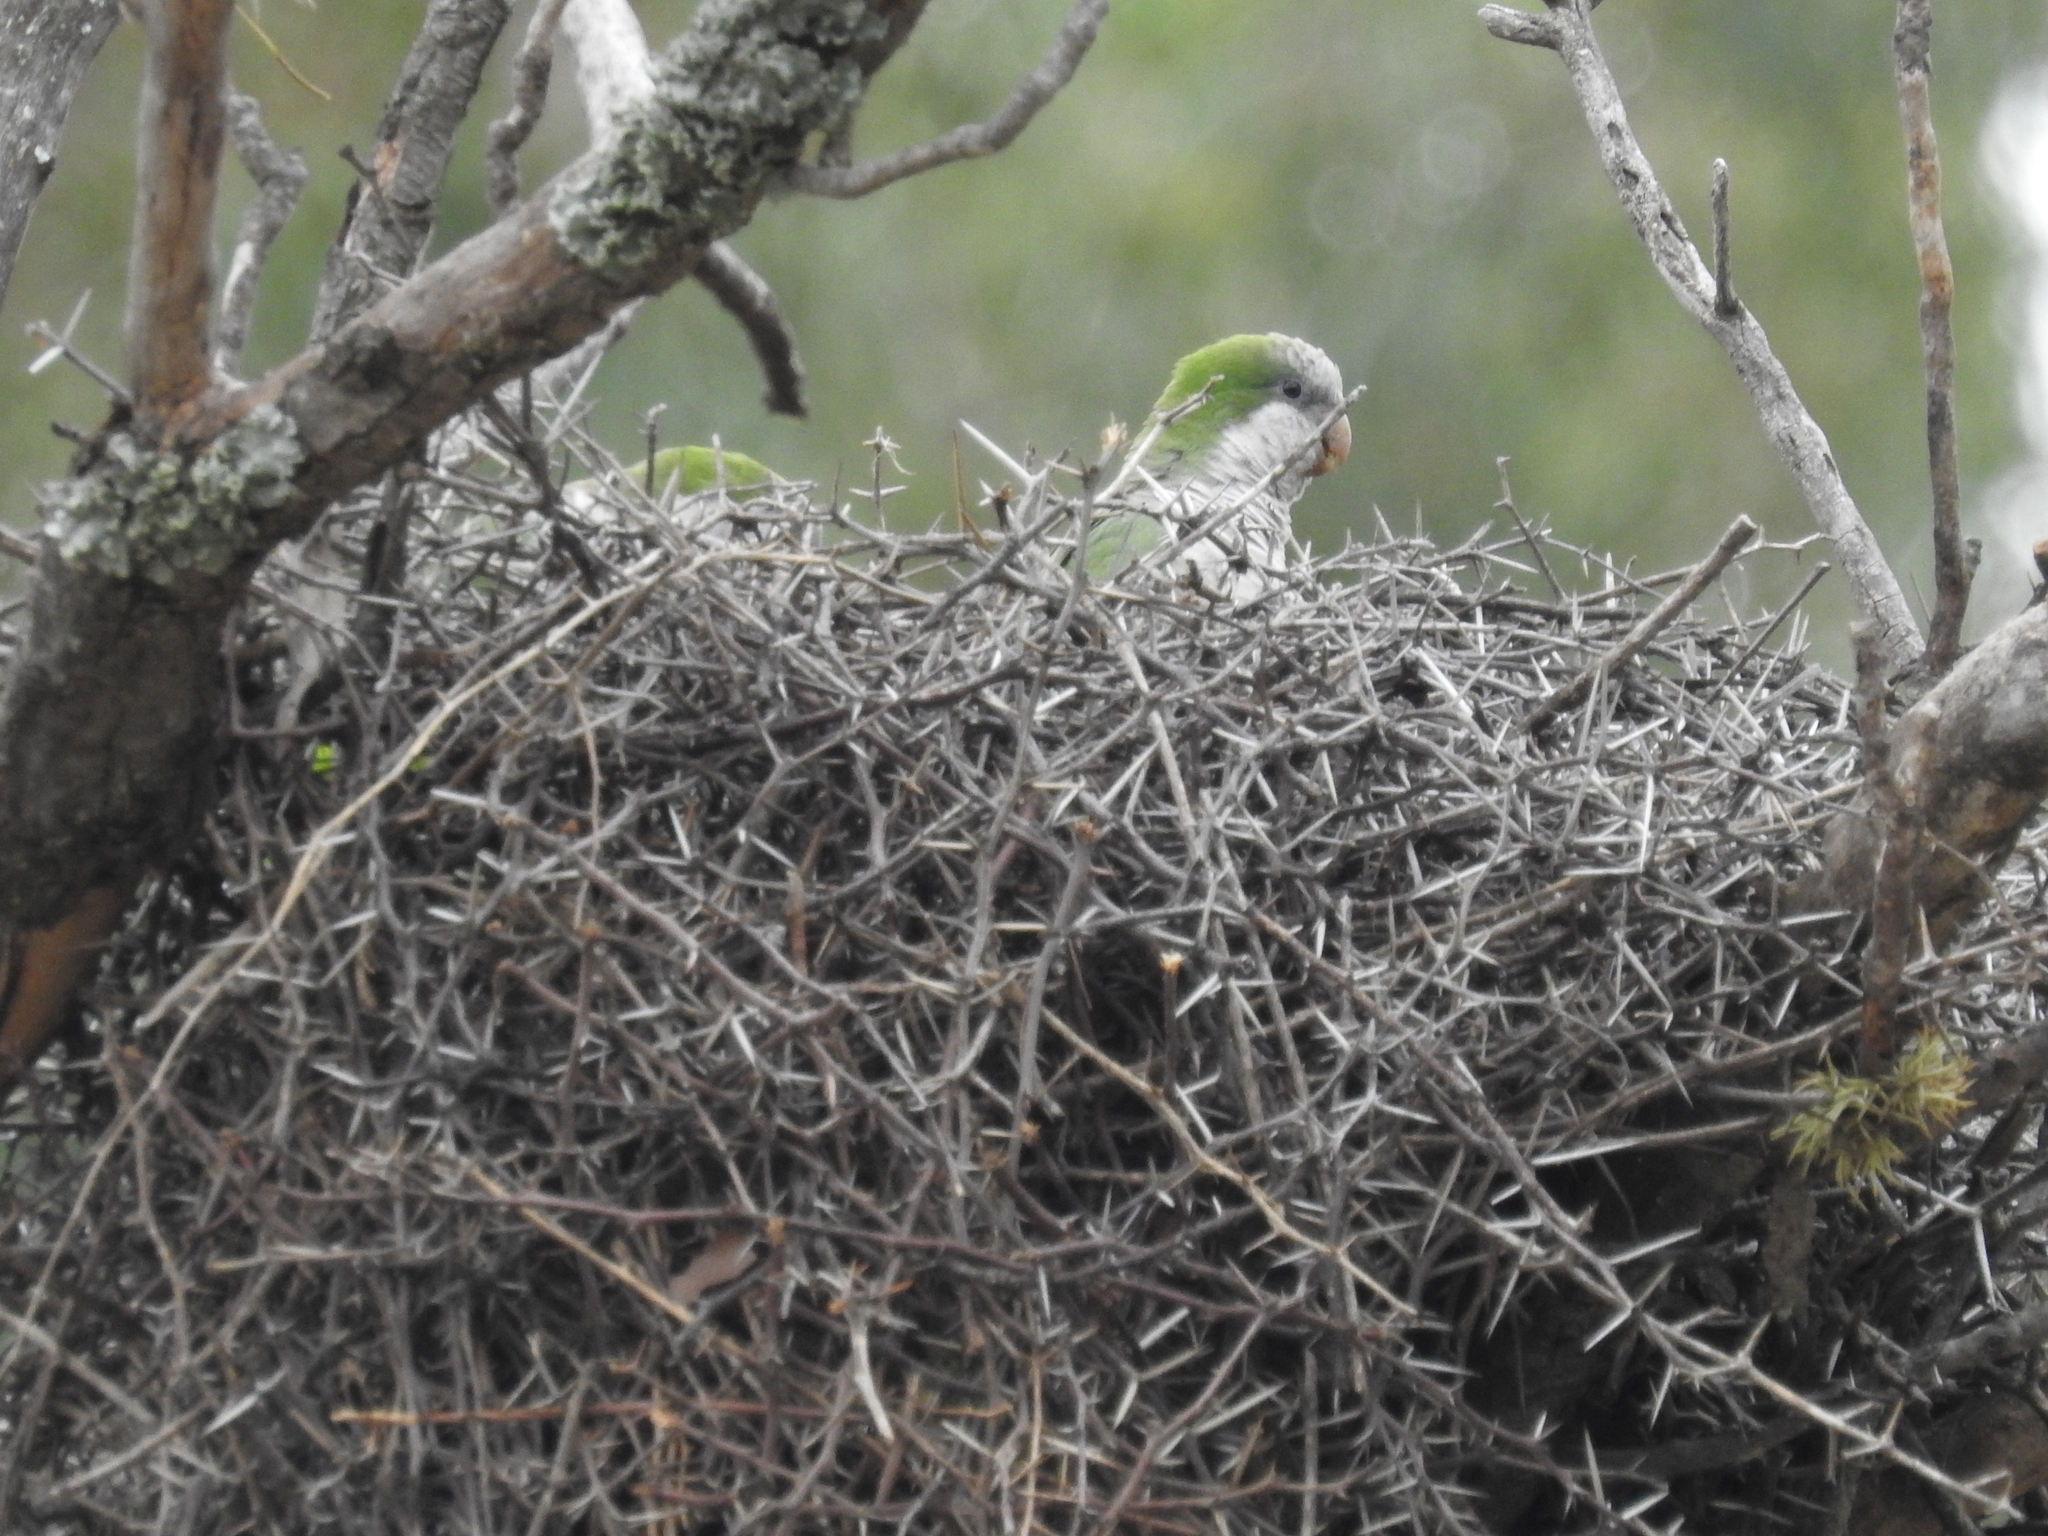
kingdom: Animalia
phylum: Chordata
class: Aves
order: Psittaciformes
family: Psittacidae
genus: Myiopsitta
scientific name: Myiopsitta monachus
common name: Monk parakeet
